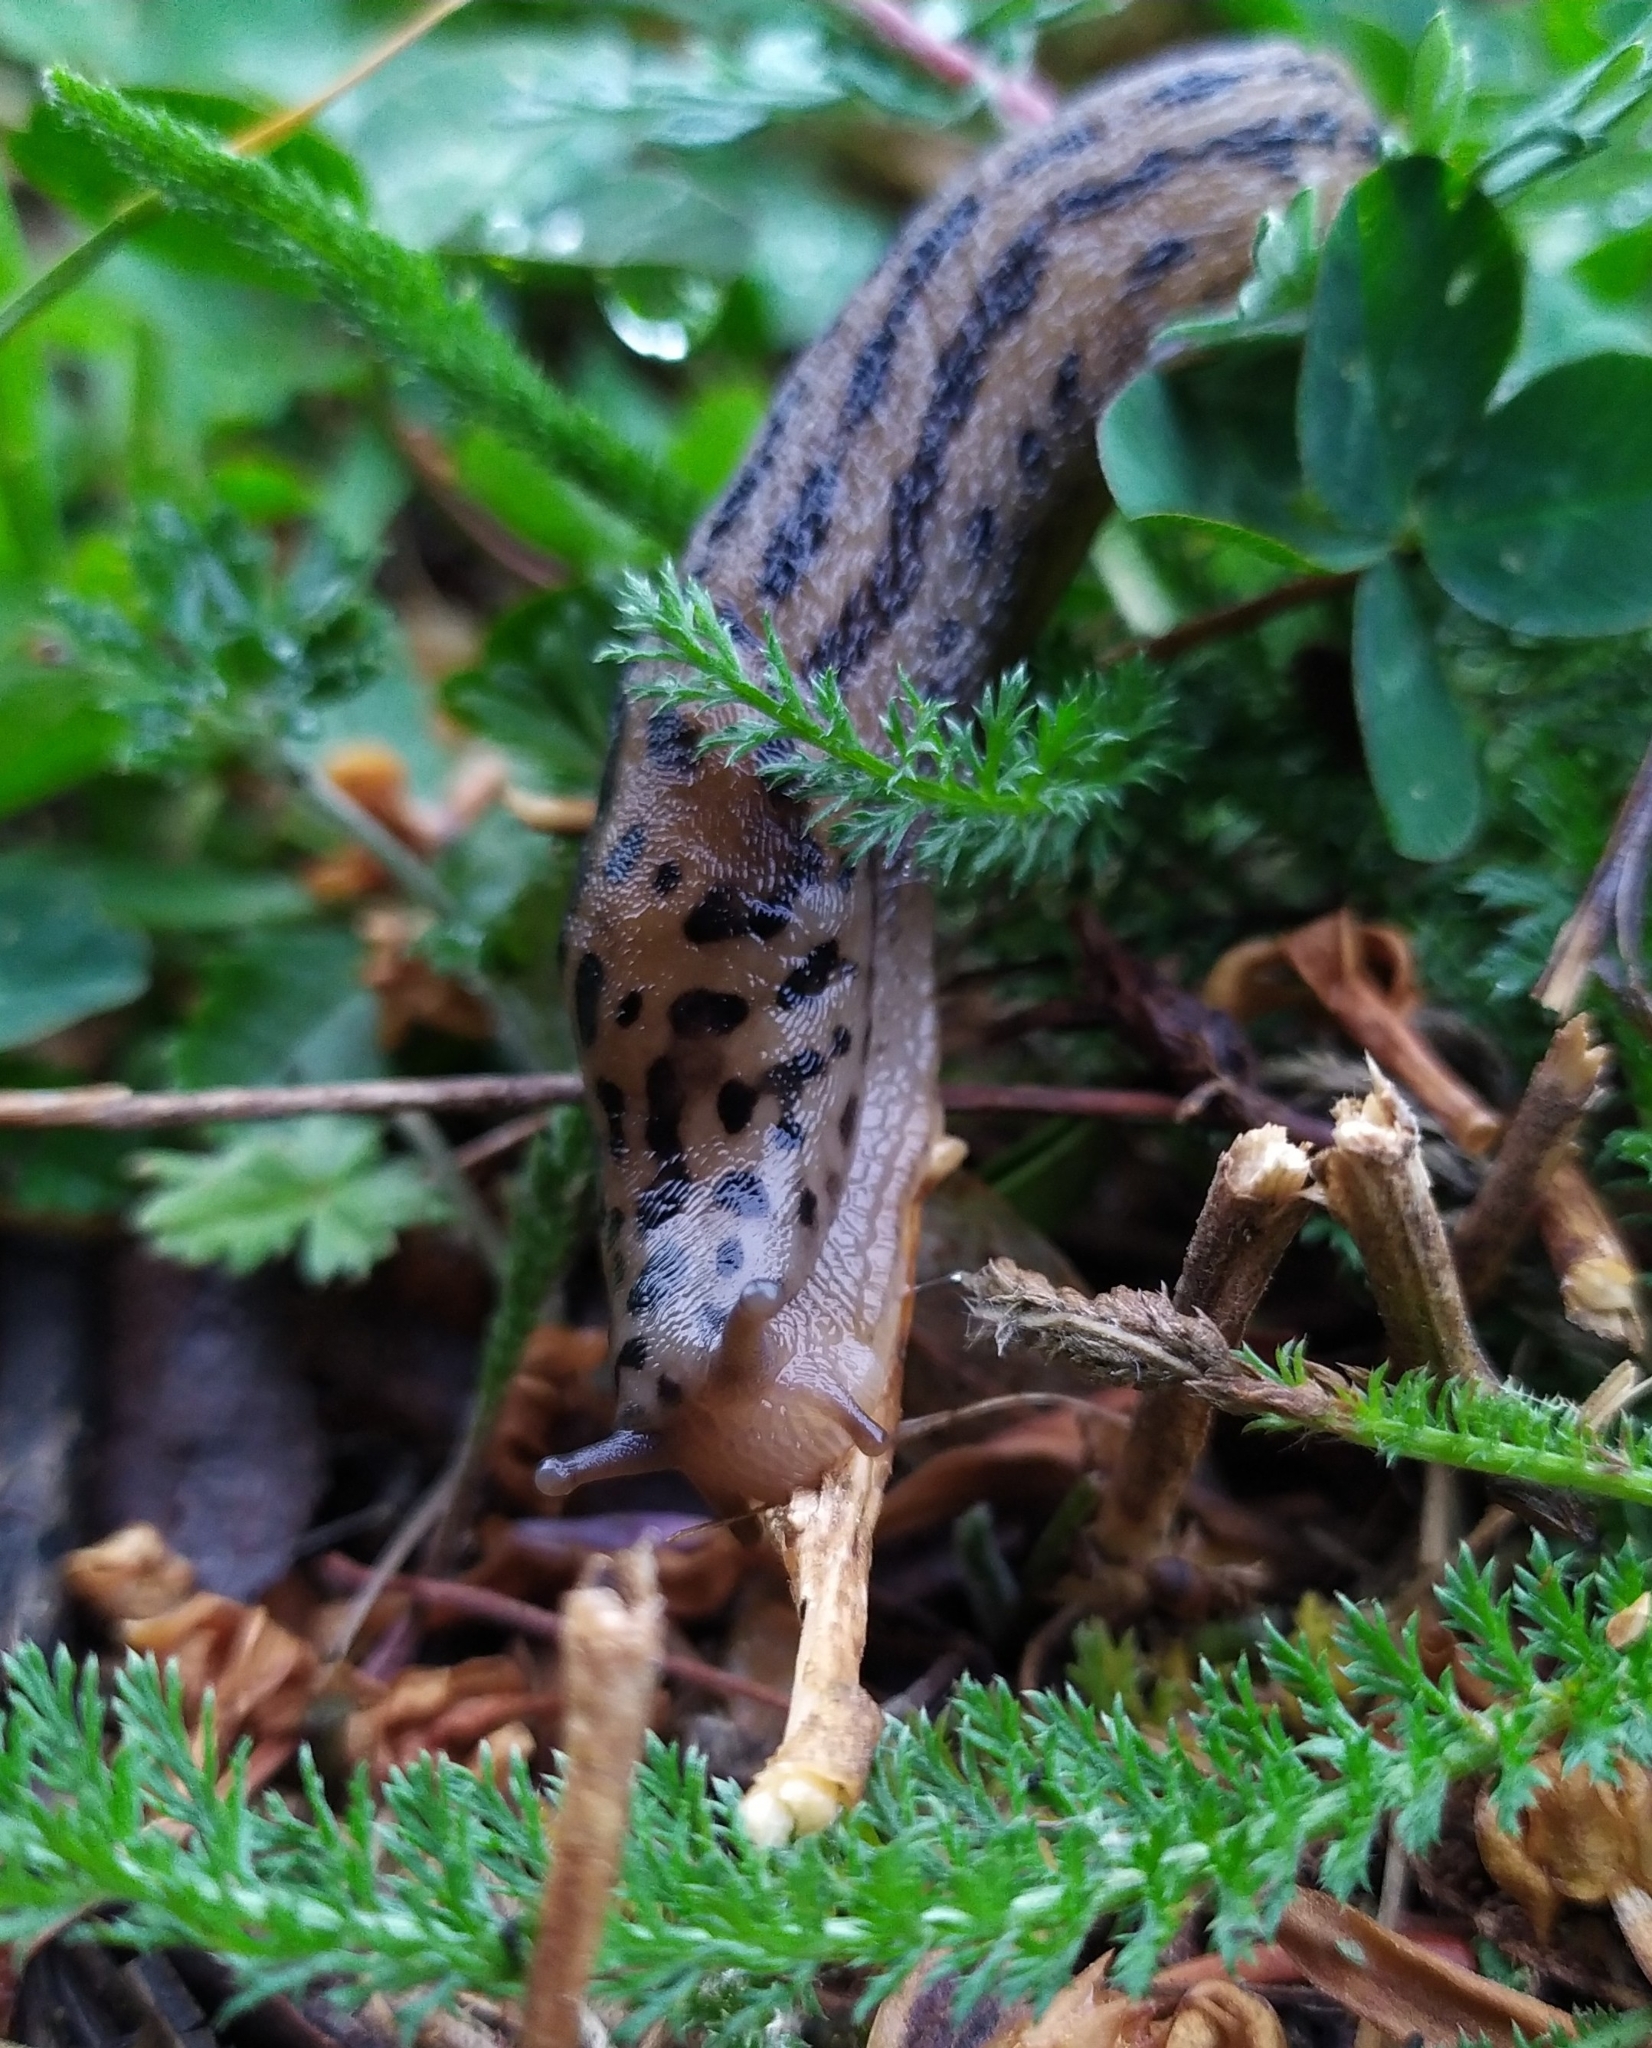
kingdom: Animalia
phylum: Mollusca
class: Gastropoda
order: Stylommatophora
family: Limacidae
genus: Limax
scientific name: Limax maximus
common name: Great grey slug
